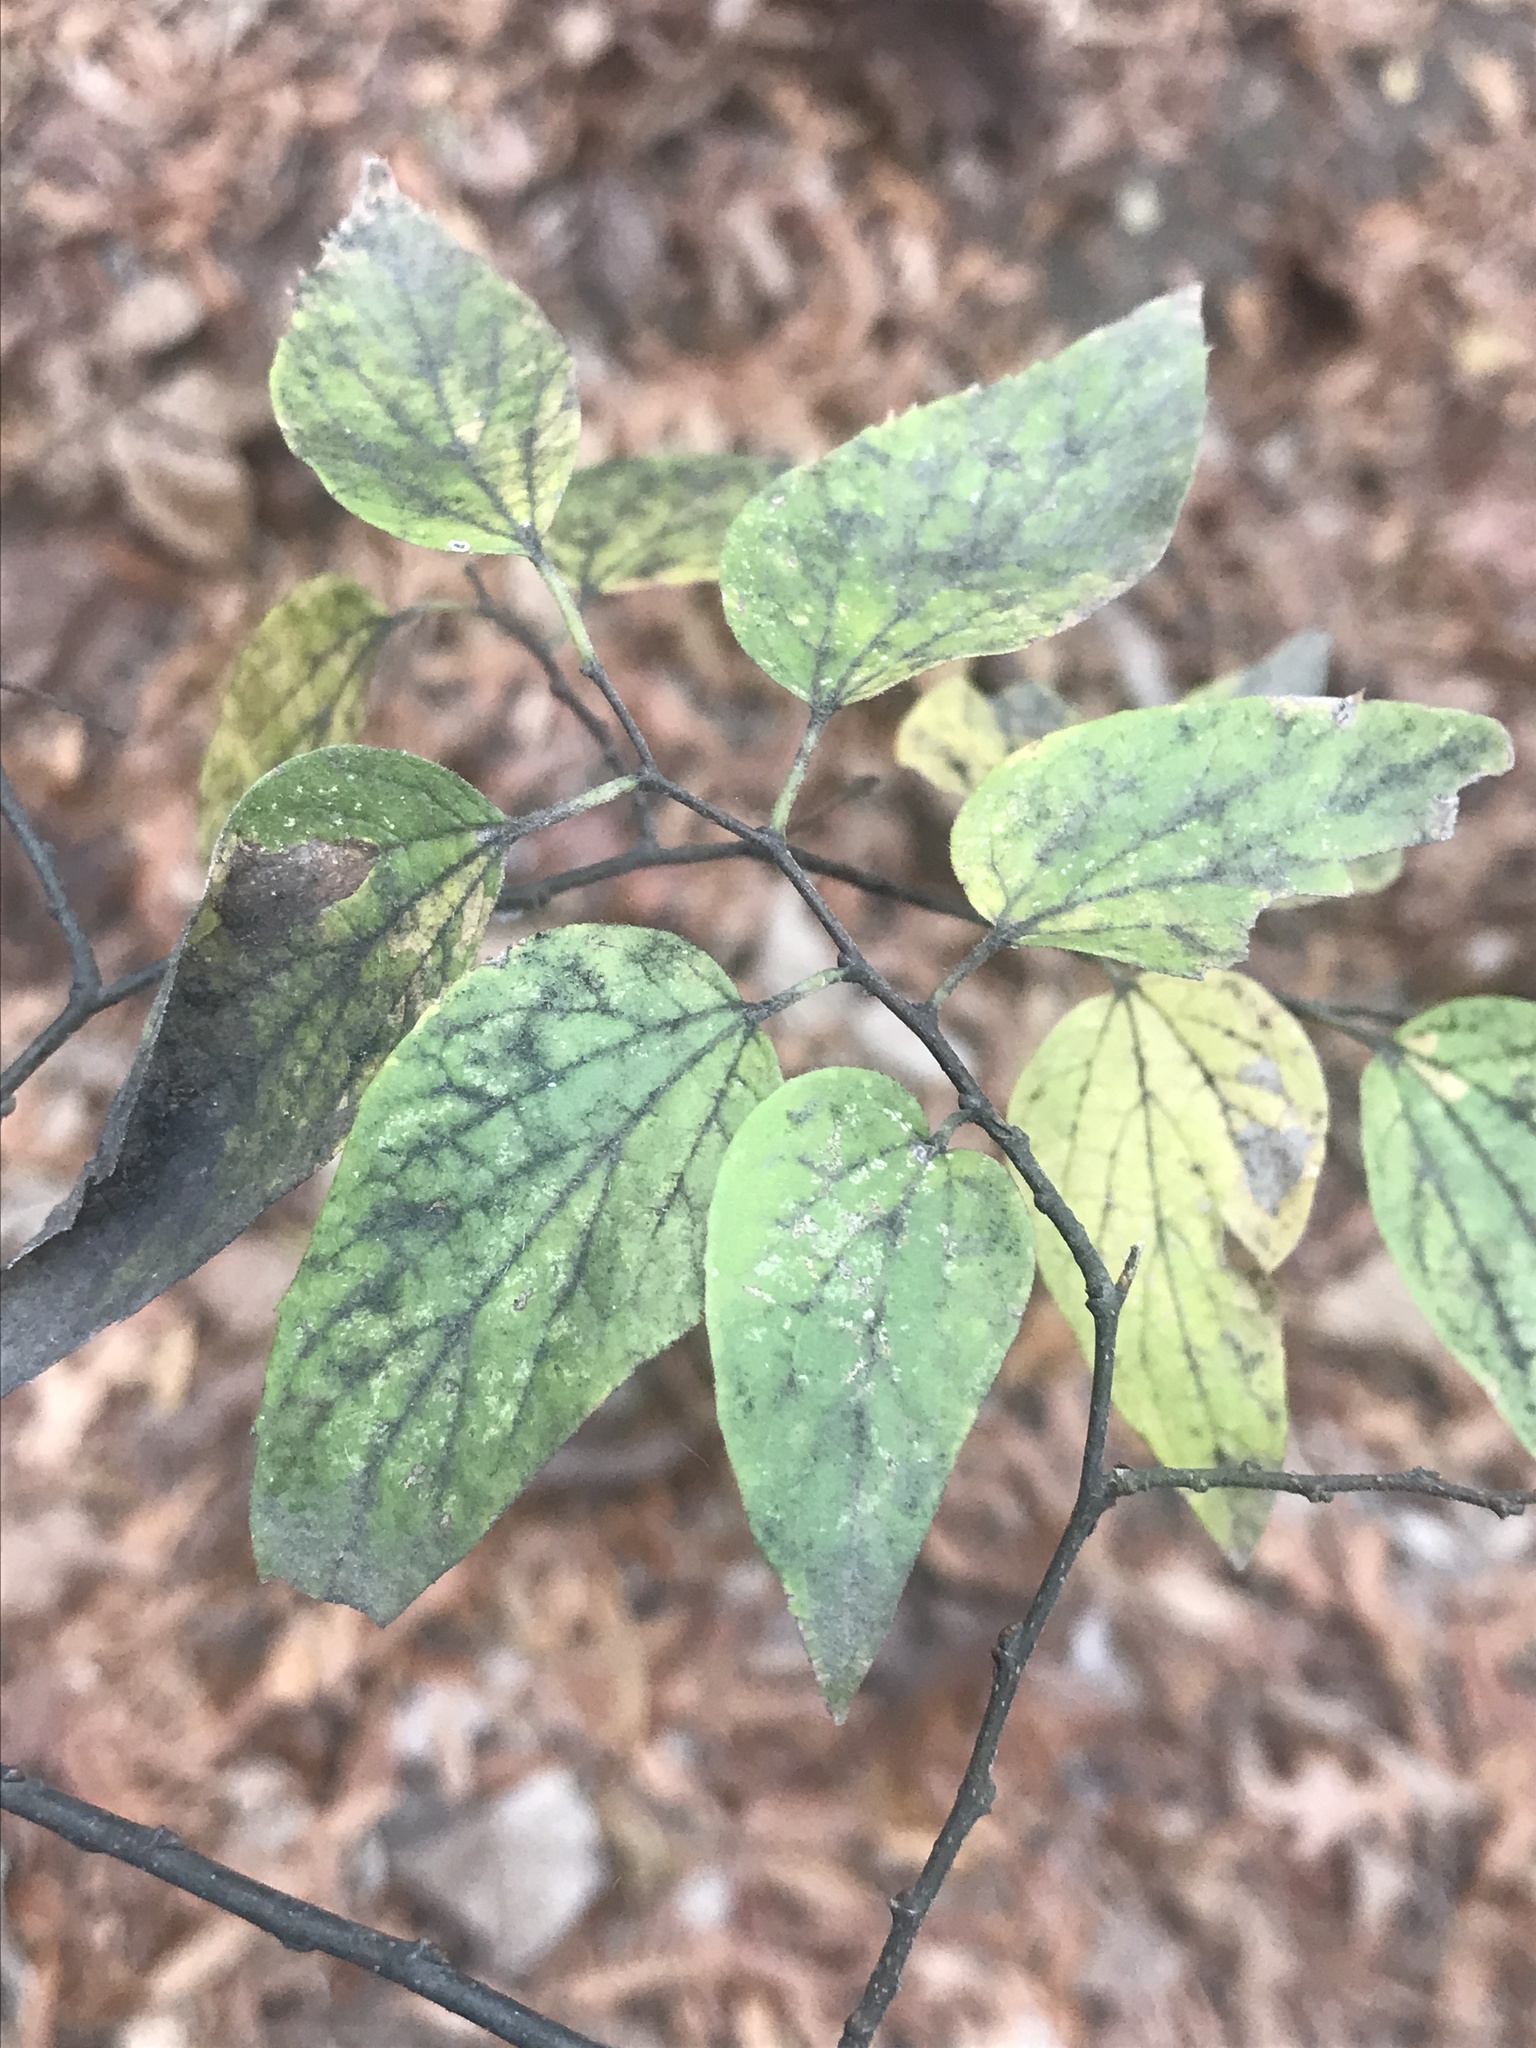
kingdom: Plantae
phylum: Tracheophyta
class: Magnoliopsida
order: Rosales
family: Cannabaceae
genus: Celtis
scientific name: Celtis laevigata
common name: Sugarberry
